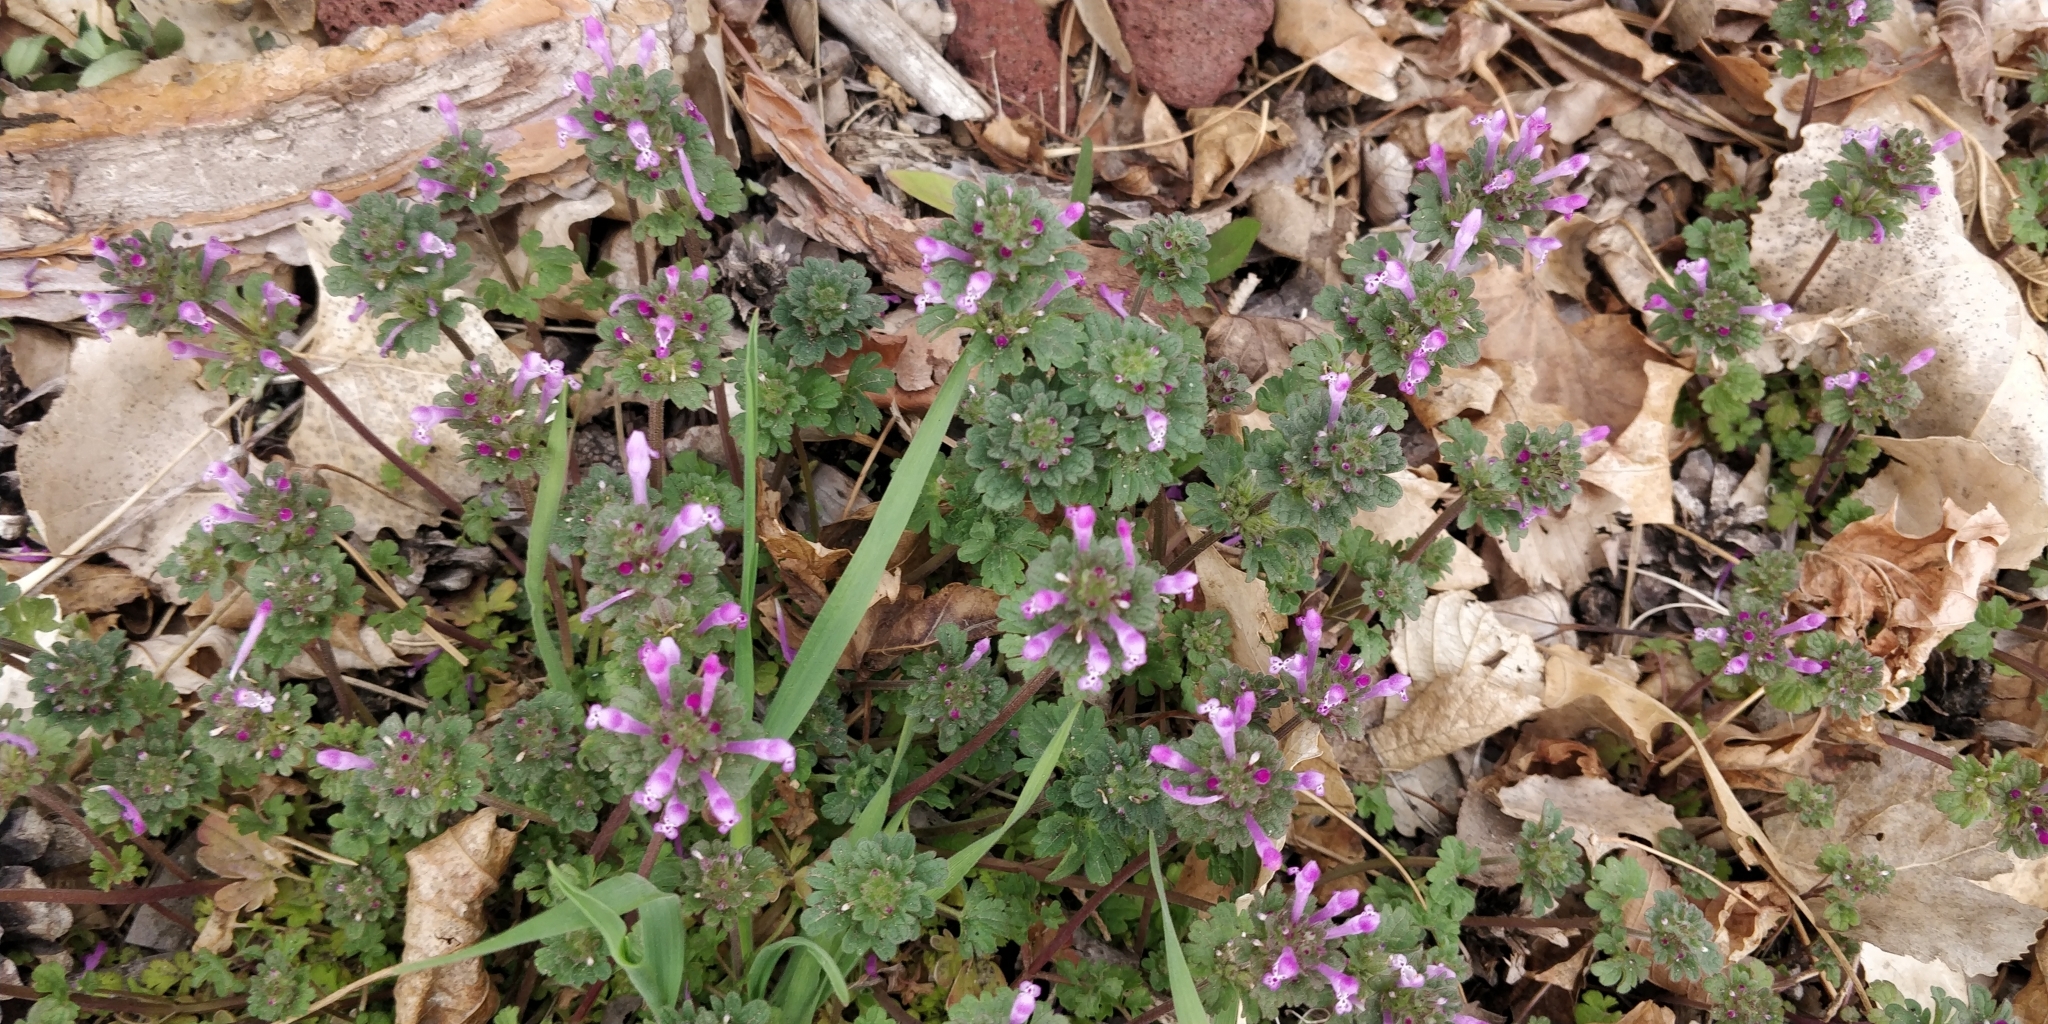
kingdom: Plantae
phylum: Tracheophyta
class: Magnoliopsida
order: Lamiales
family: Lamiaceae
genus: Lamium
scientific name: Lamium amplexicaule
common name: Henbit dead-nettle
